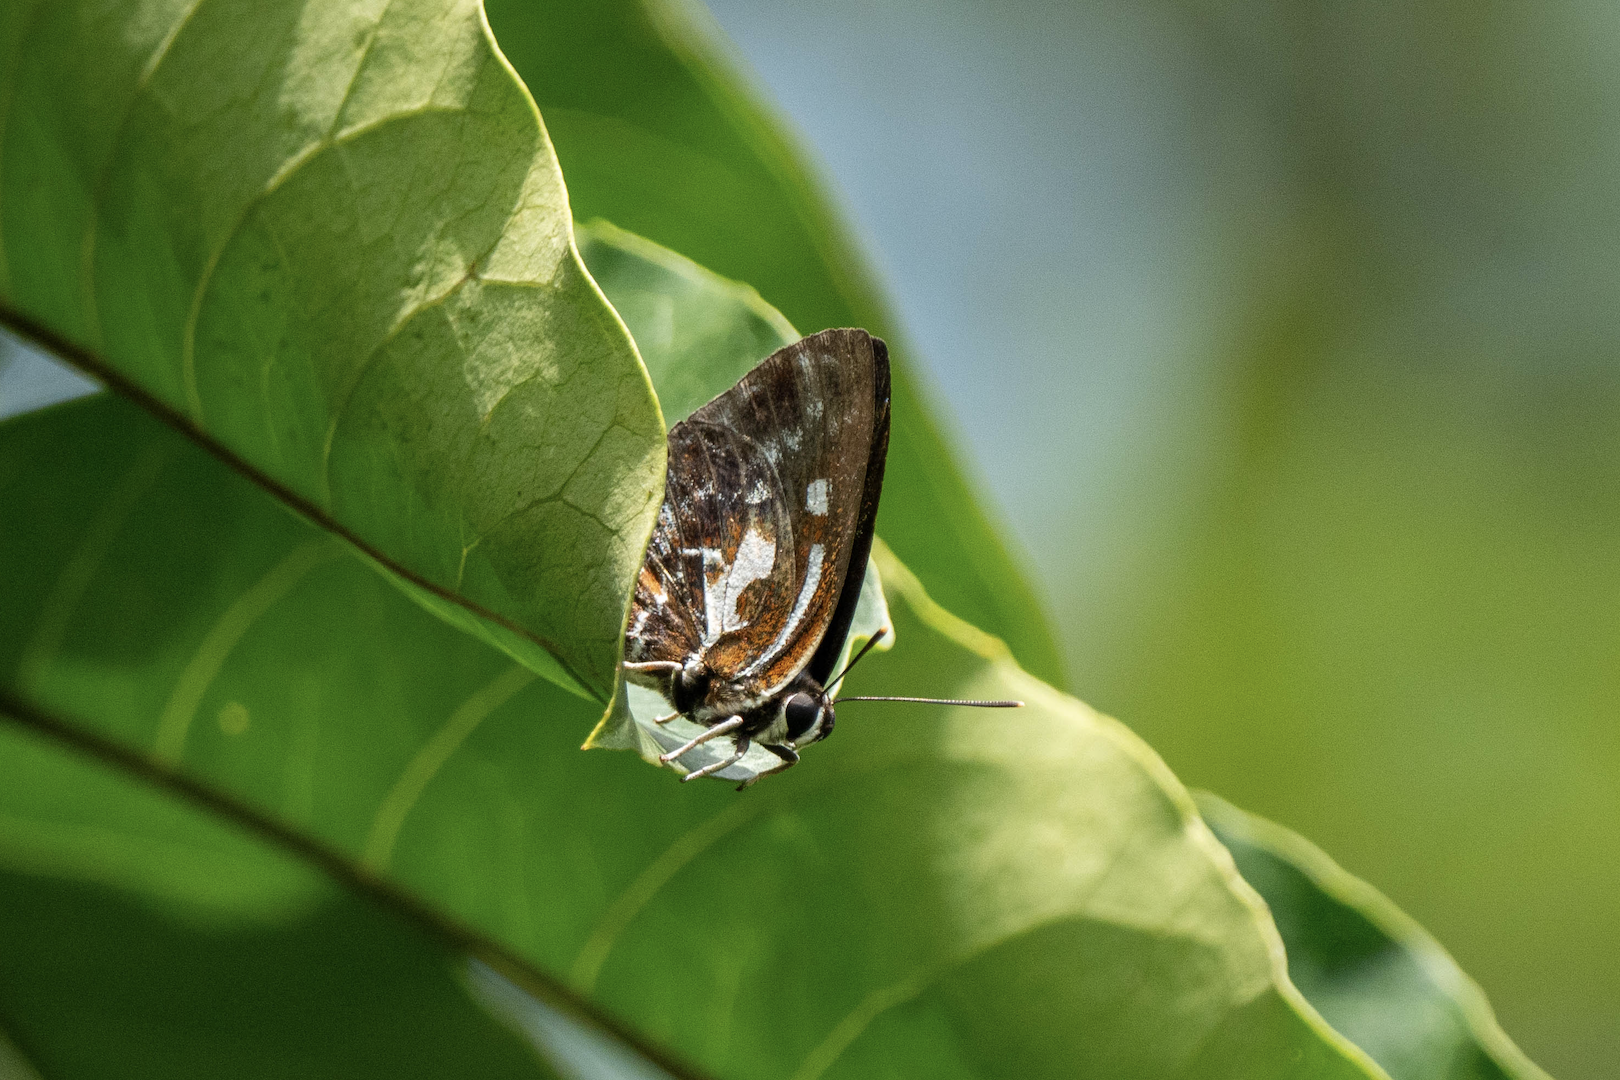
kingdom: Animalia
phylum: Arthropoda
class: Insecta
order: Lepidoptera
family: Lycaenidae
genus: Iraota
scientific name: Iraota timoleon
